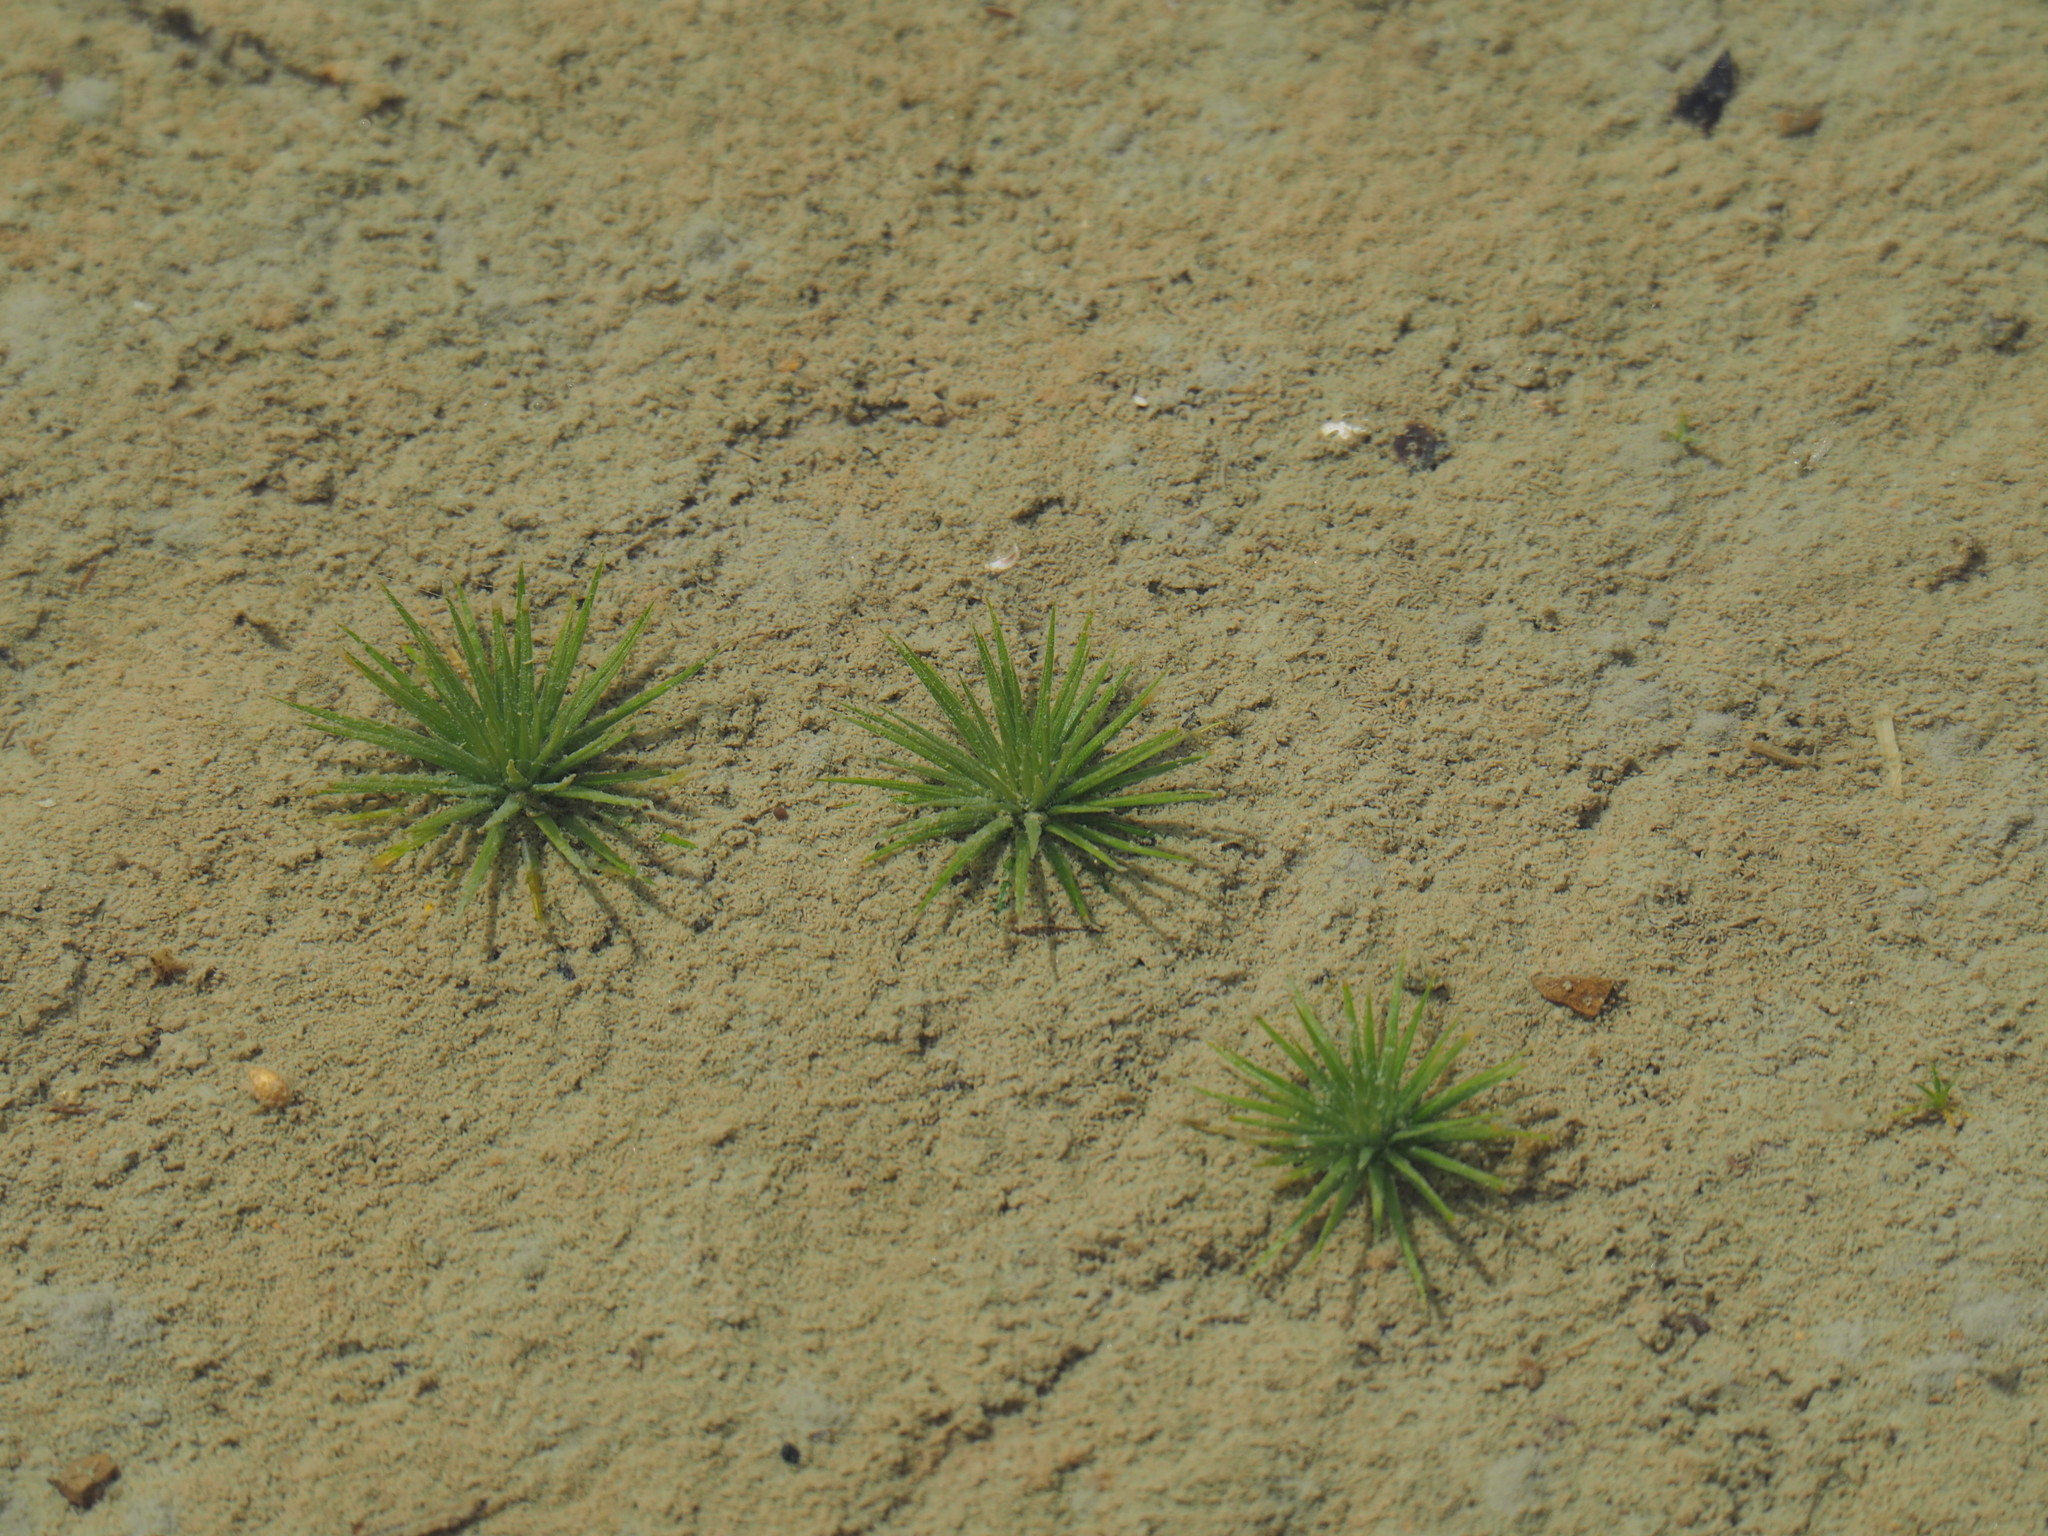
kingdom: Plantae
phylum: Tracheophyta
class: Liliopsida
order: Poales
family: Eriocaulaceae
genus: Eriocaulon
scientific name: Eriocaulon cinereum
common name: Ashy pipewort
